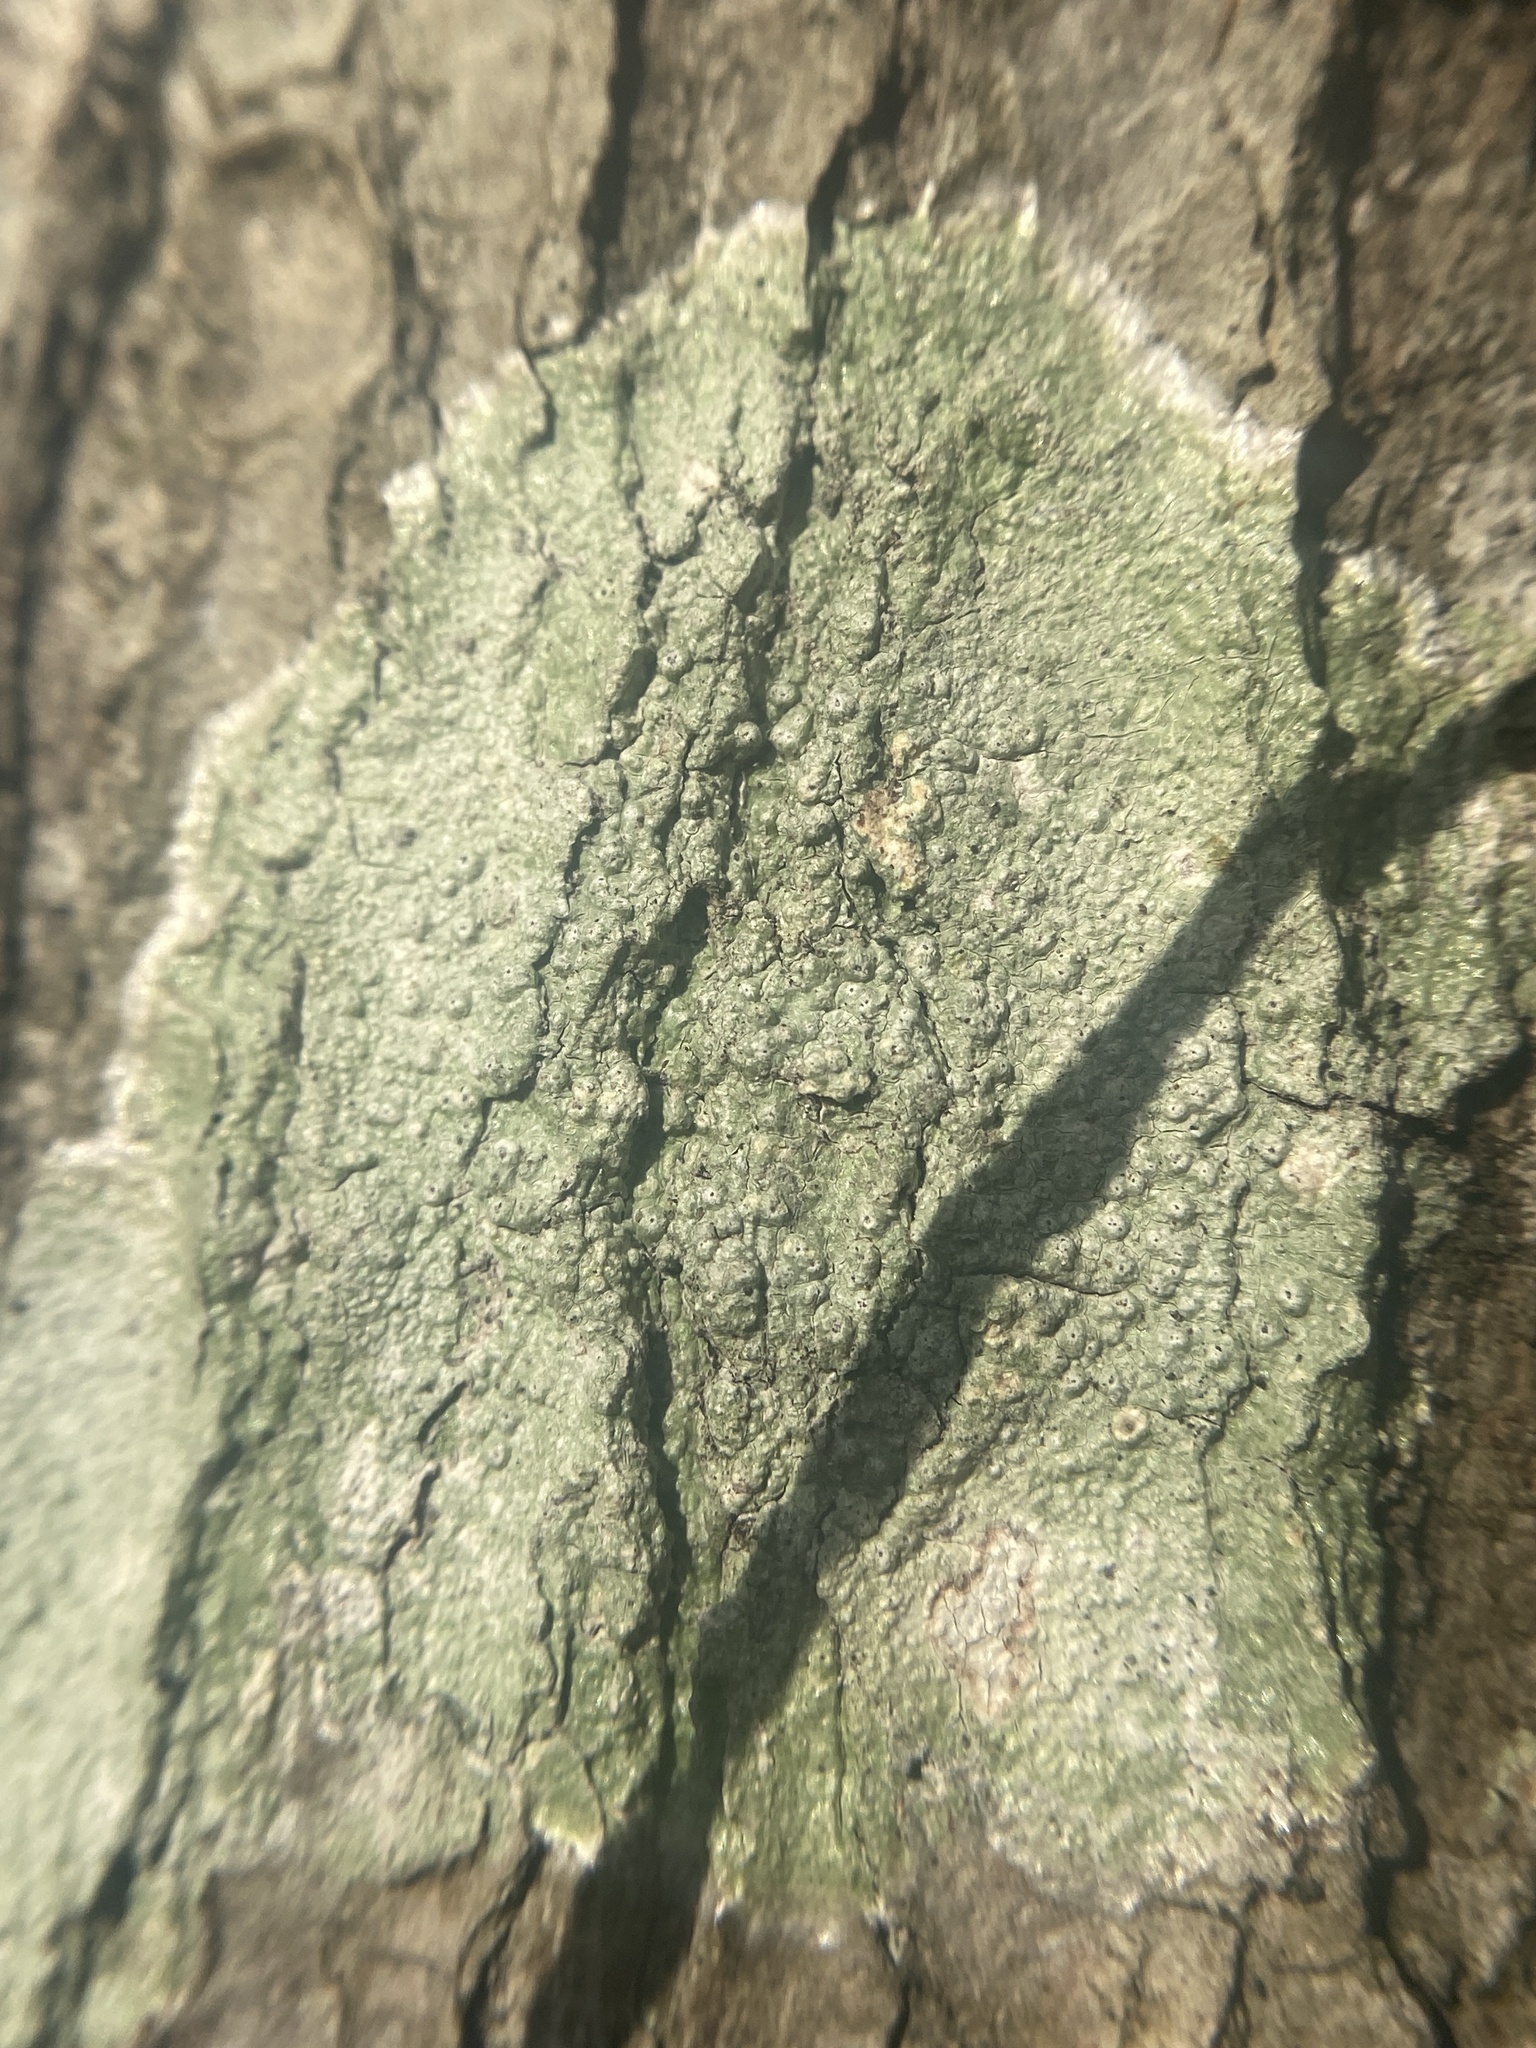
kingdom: Fungi
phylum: Ascomycota
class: Lecanoromycetes
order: Pertusariales
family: Pertusariaceae
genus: Pertusaria
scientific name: Pertusaria sinusmexicani
